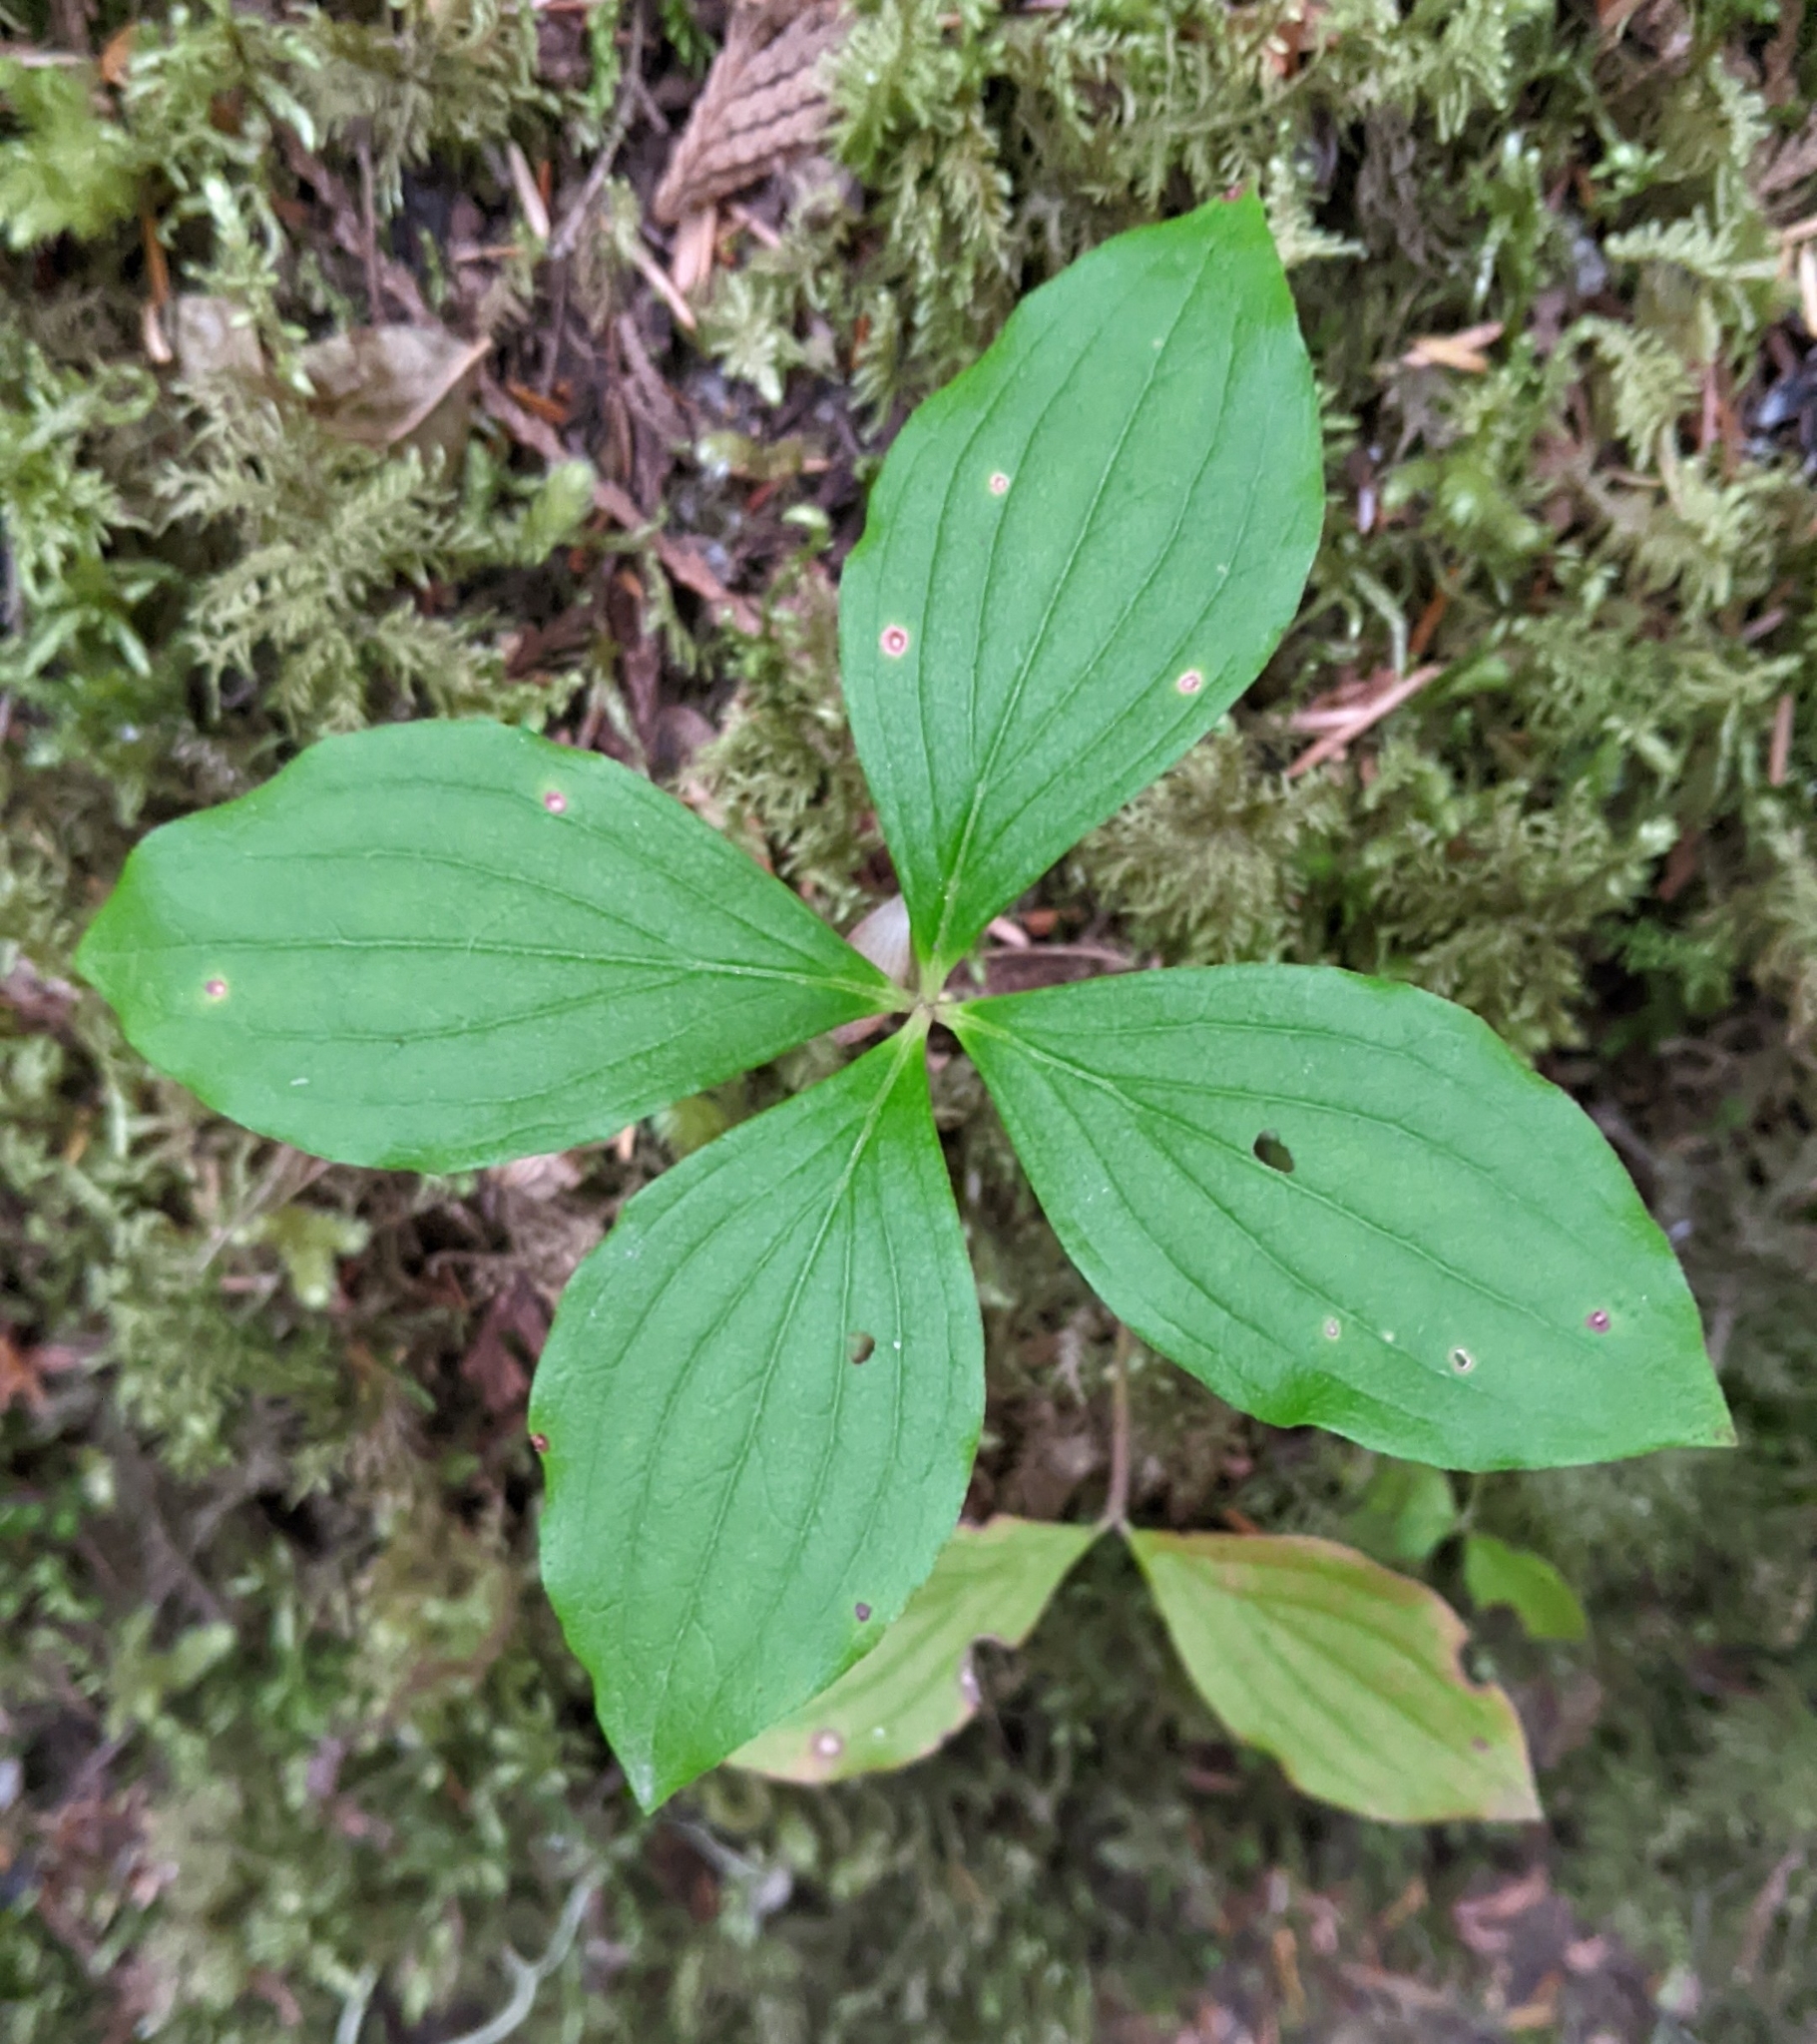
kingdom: Plantae
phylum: Tracheophyta
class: Magnoliopsida
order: Cornales
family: Cornaceae
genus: Cornus
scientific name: Cornus unalaschkensis
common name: Alaska bunchberry
